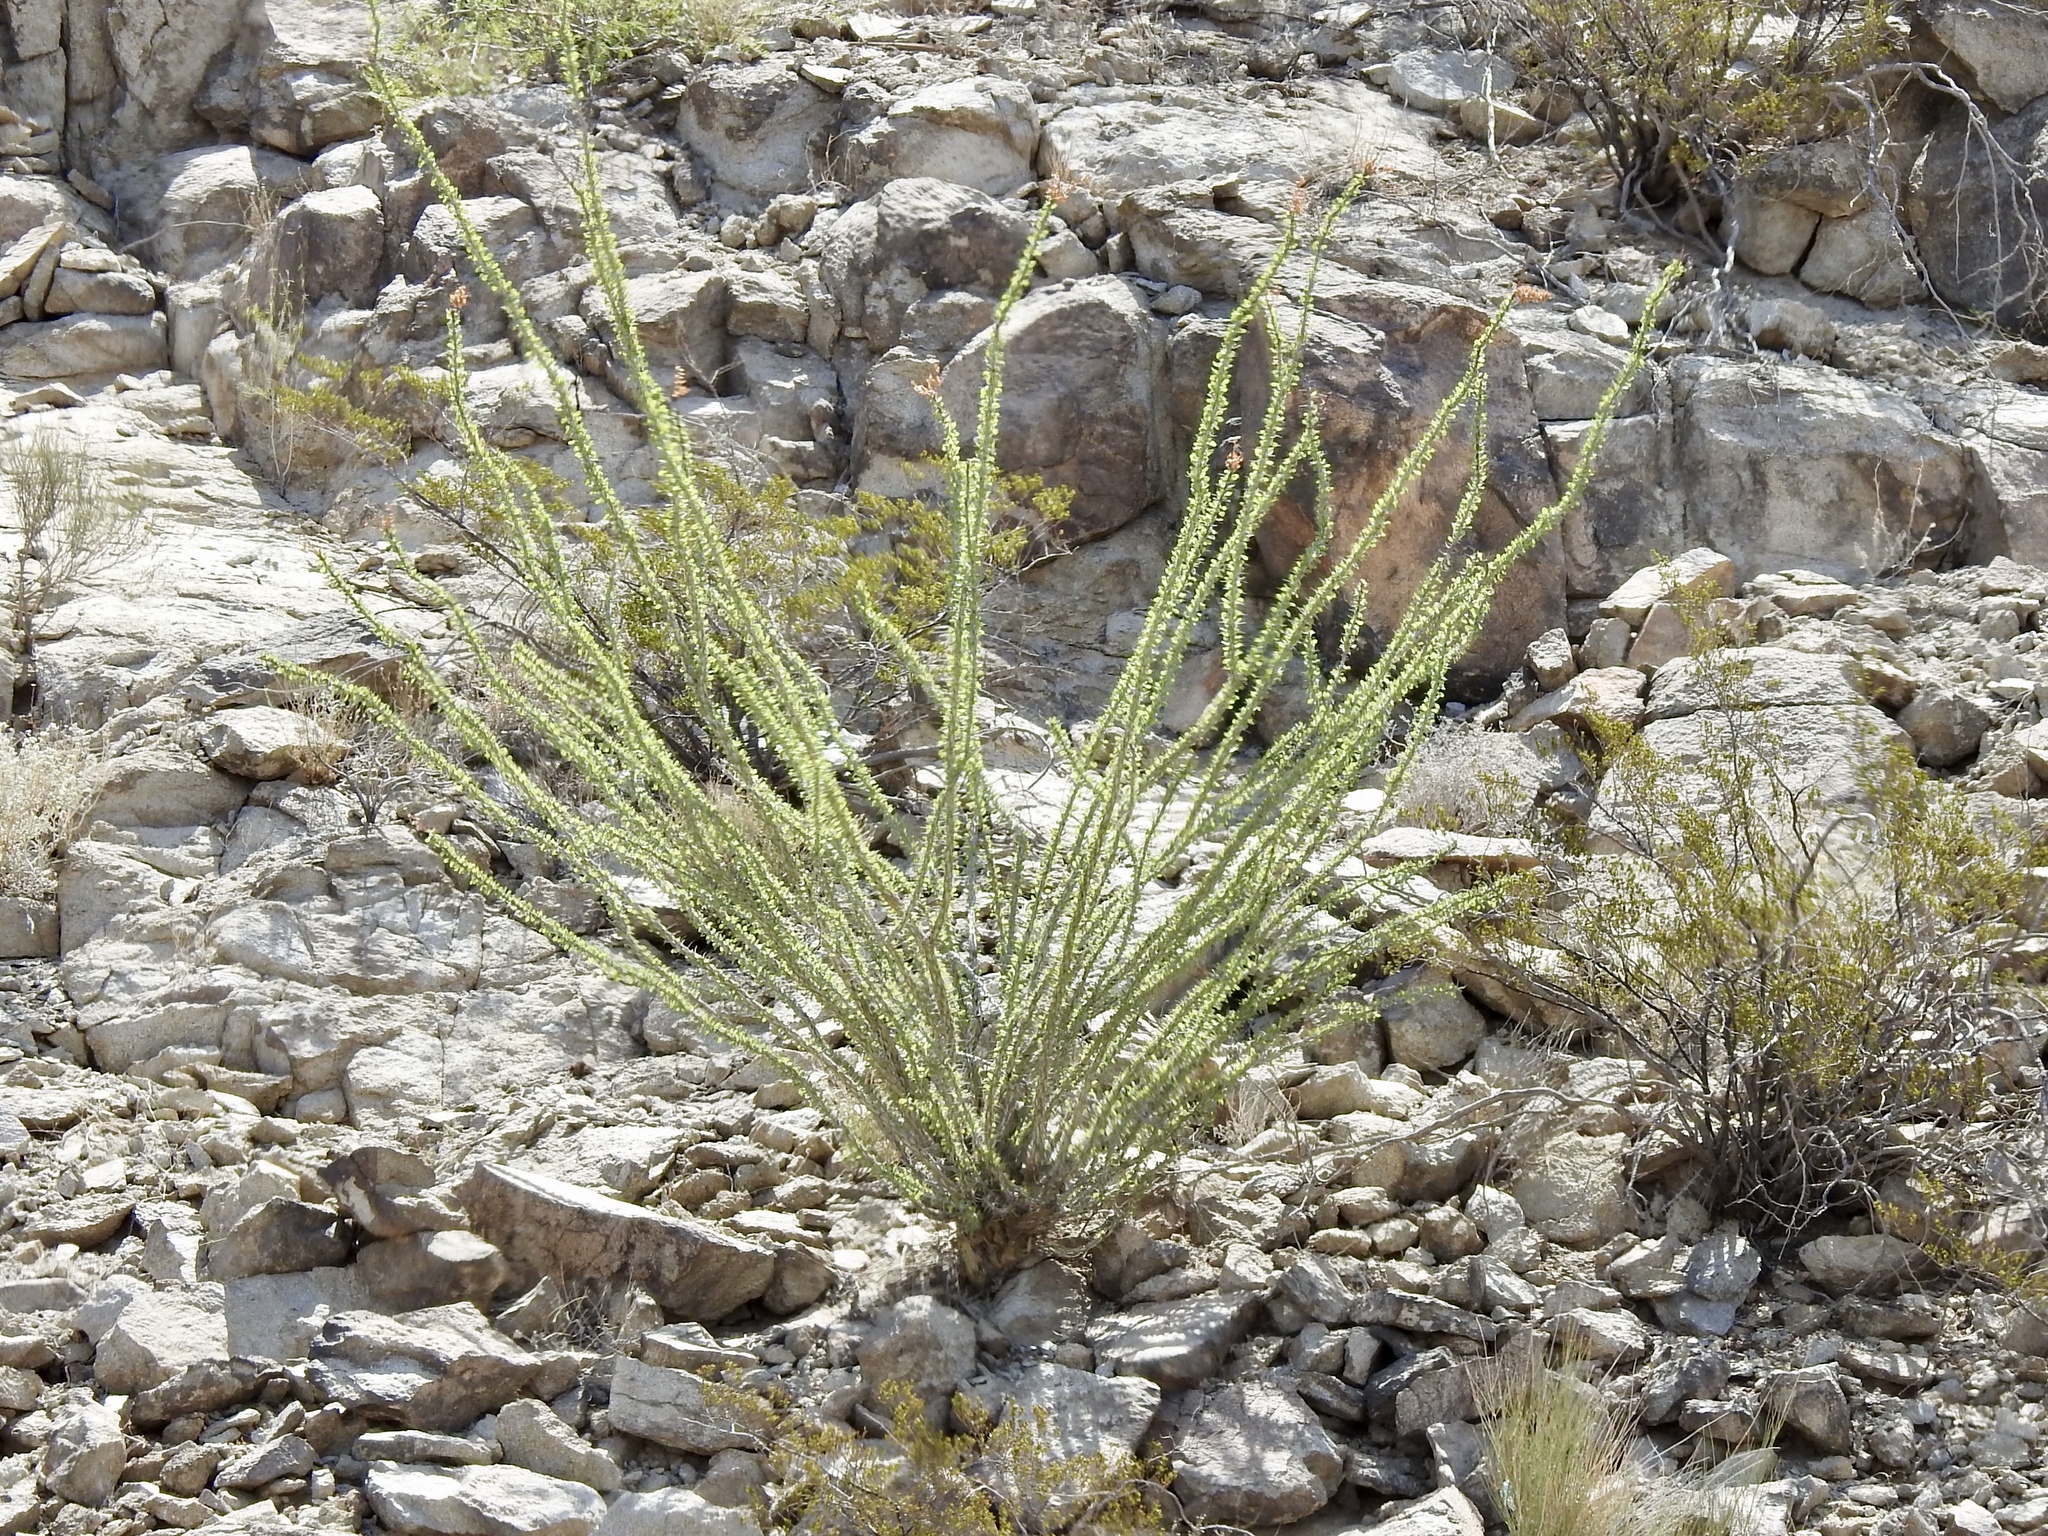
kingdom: Plantae
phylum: Tracheophyta
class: Magnoliopsida
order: Ericales
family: Fouquieriaceae
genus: Fouquieria
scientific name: Fouquieria splendens
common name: Vine-cactus
